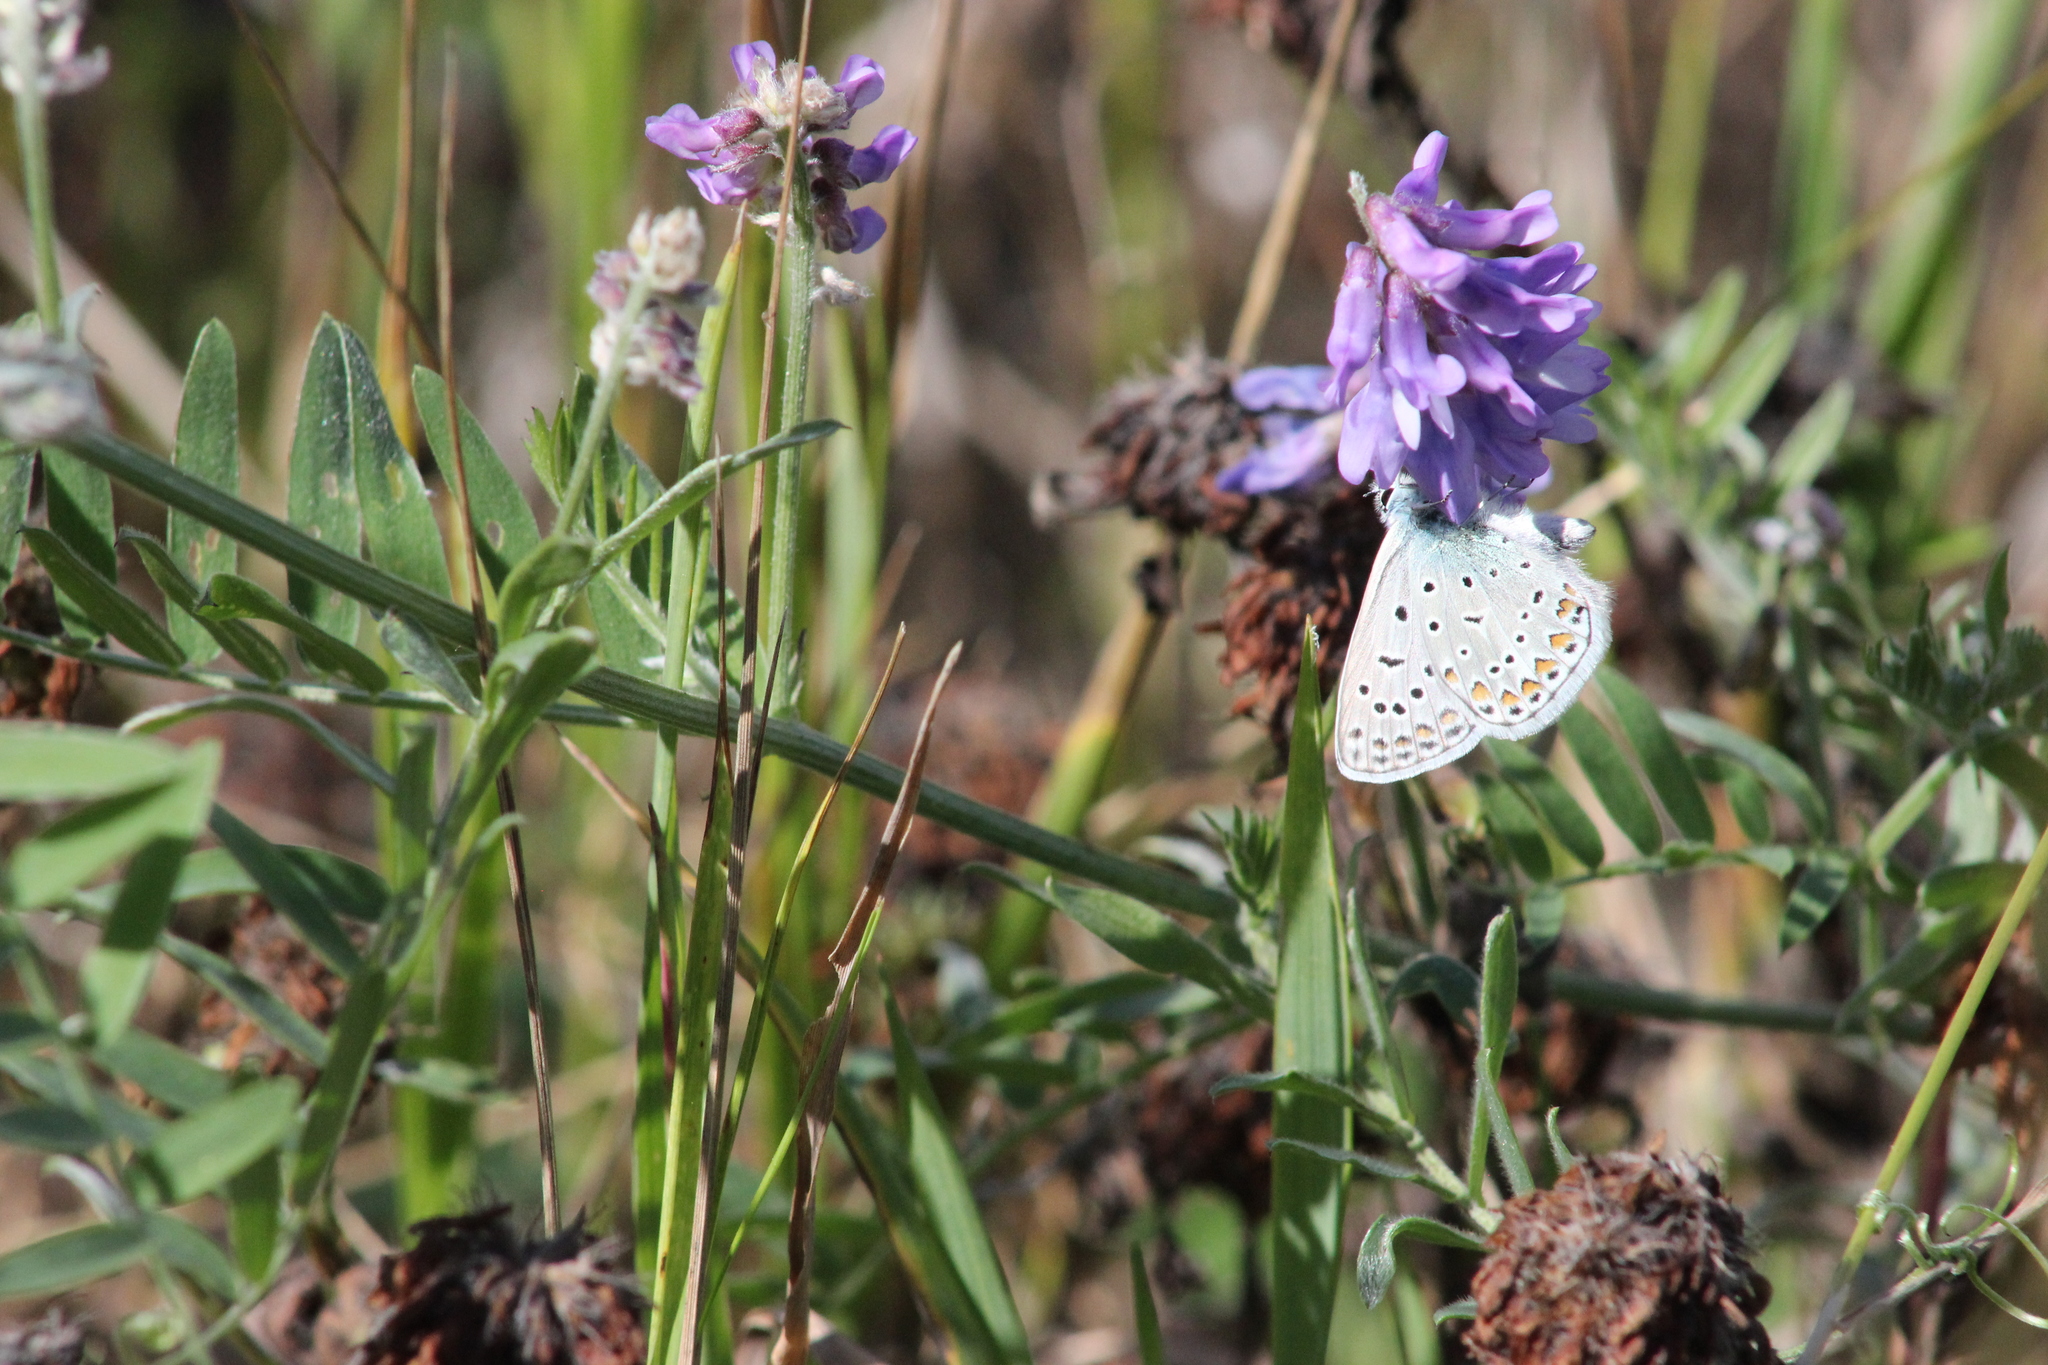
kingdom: Animalia
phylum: Arthropoda
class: Insecta
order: Lepidoptera
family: Lycaenidae
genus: Polyommatus
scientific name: Polyommatus icarus
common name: Common blue
